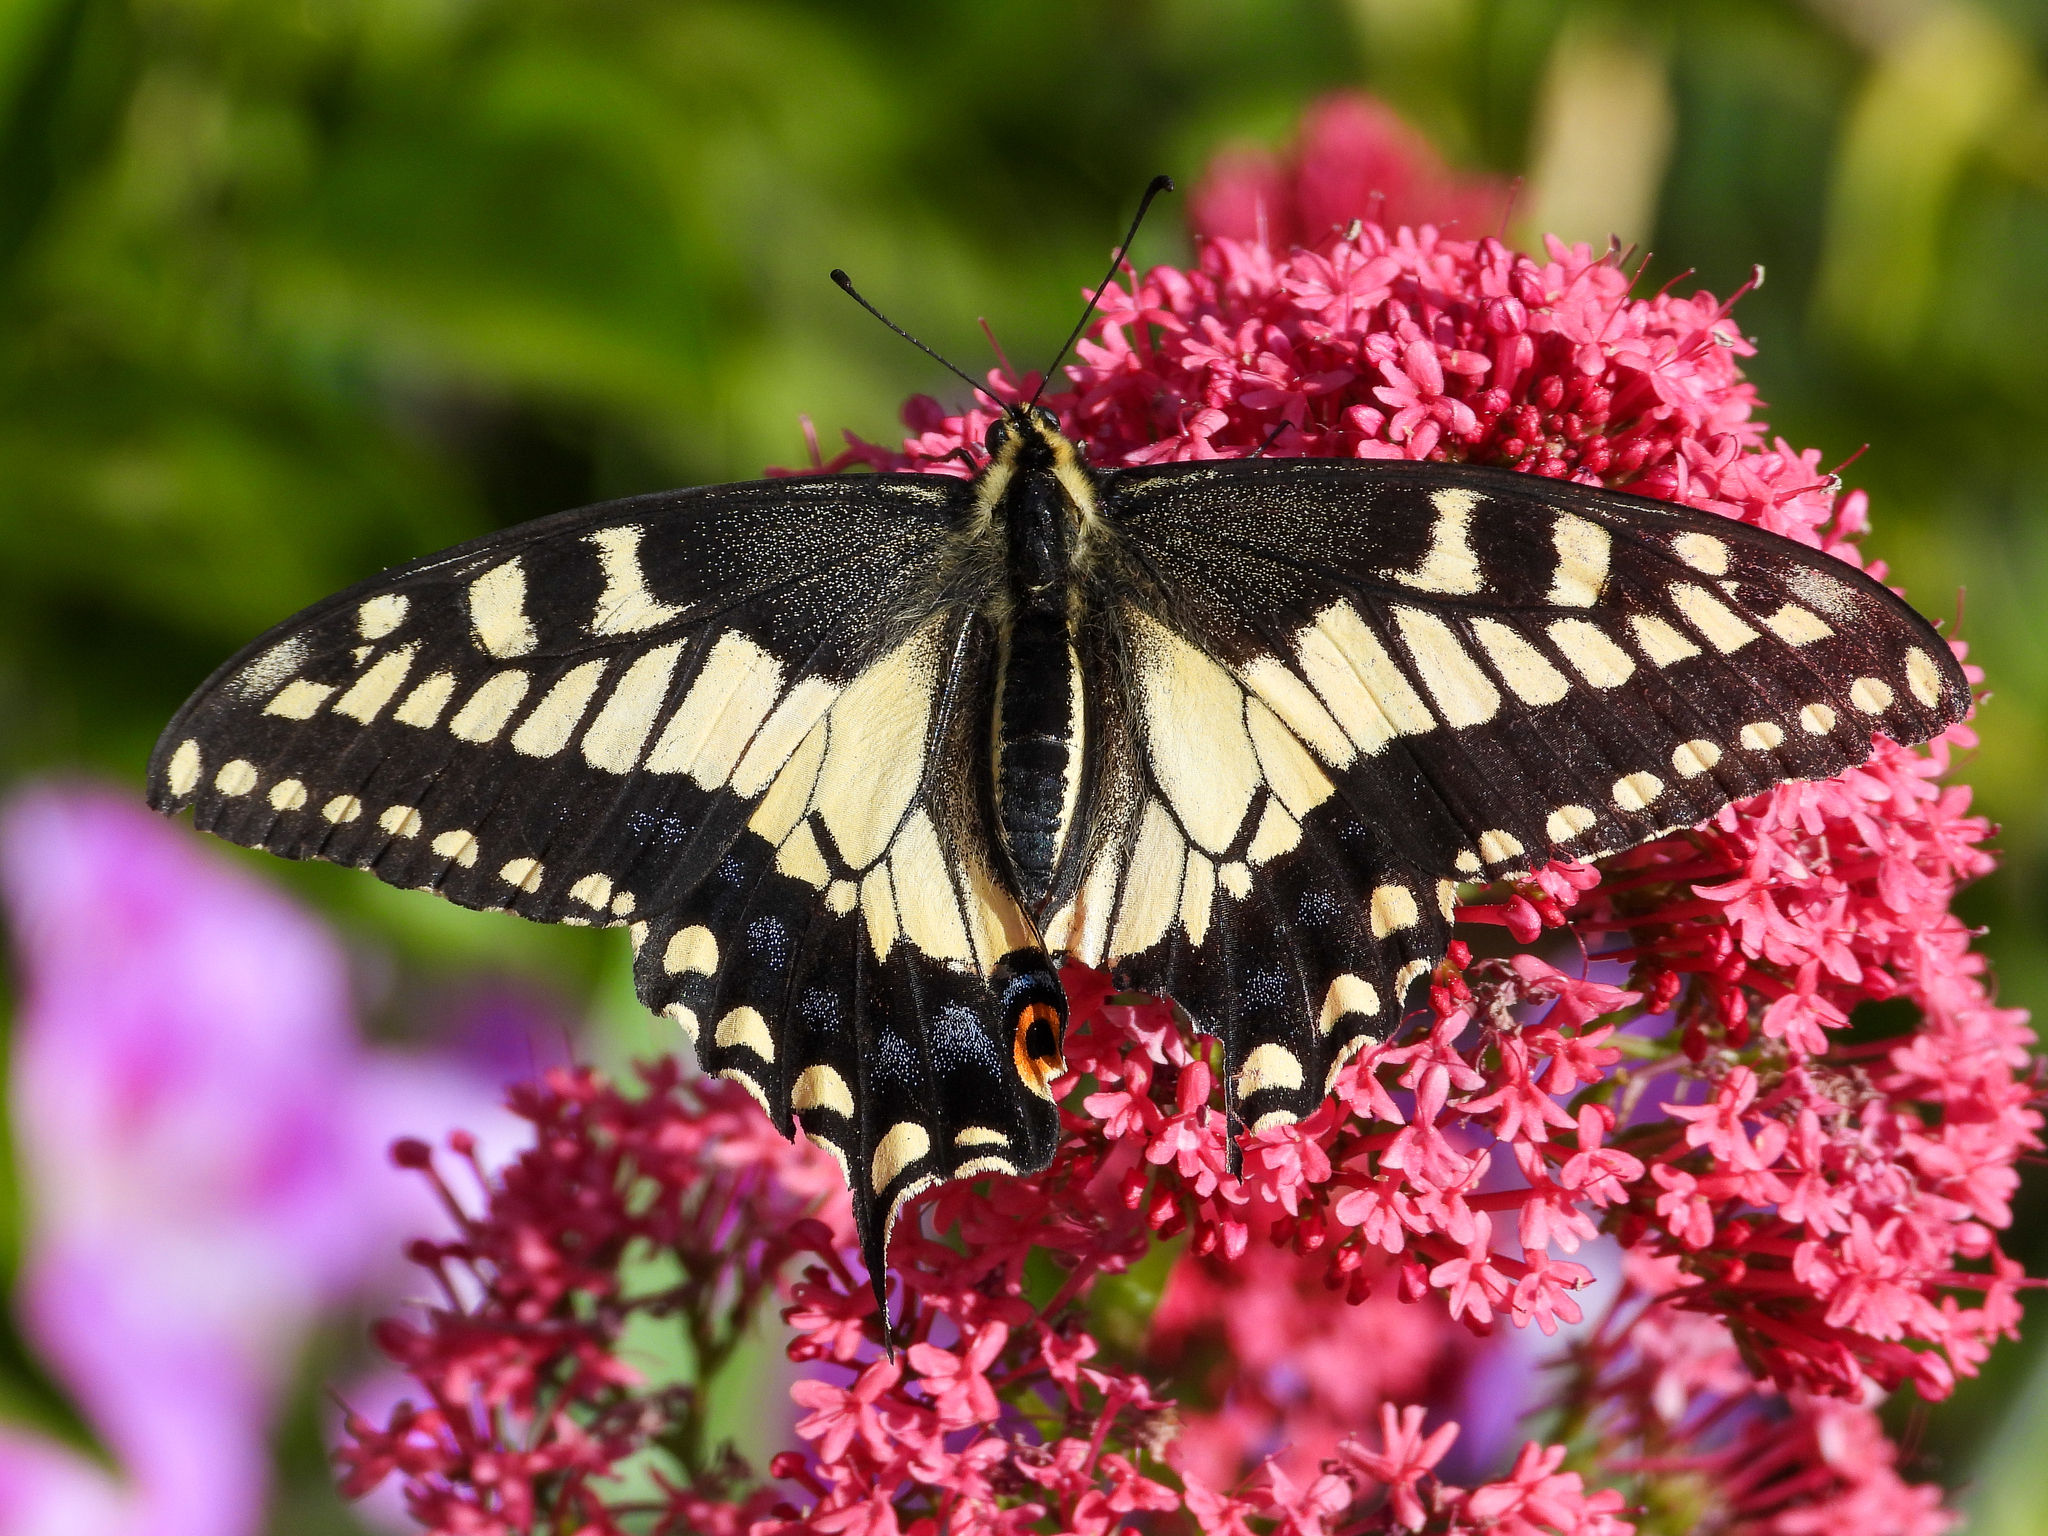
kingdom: Animalia
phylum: Arthropoda
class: Insecta
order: Lepidoptera
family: Papilionidae
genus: Papilio
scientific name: Papilio zelicaon
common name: Anise swallowtail
